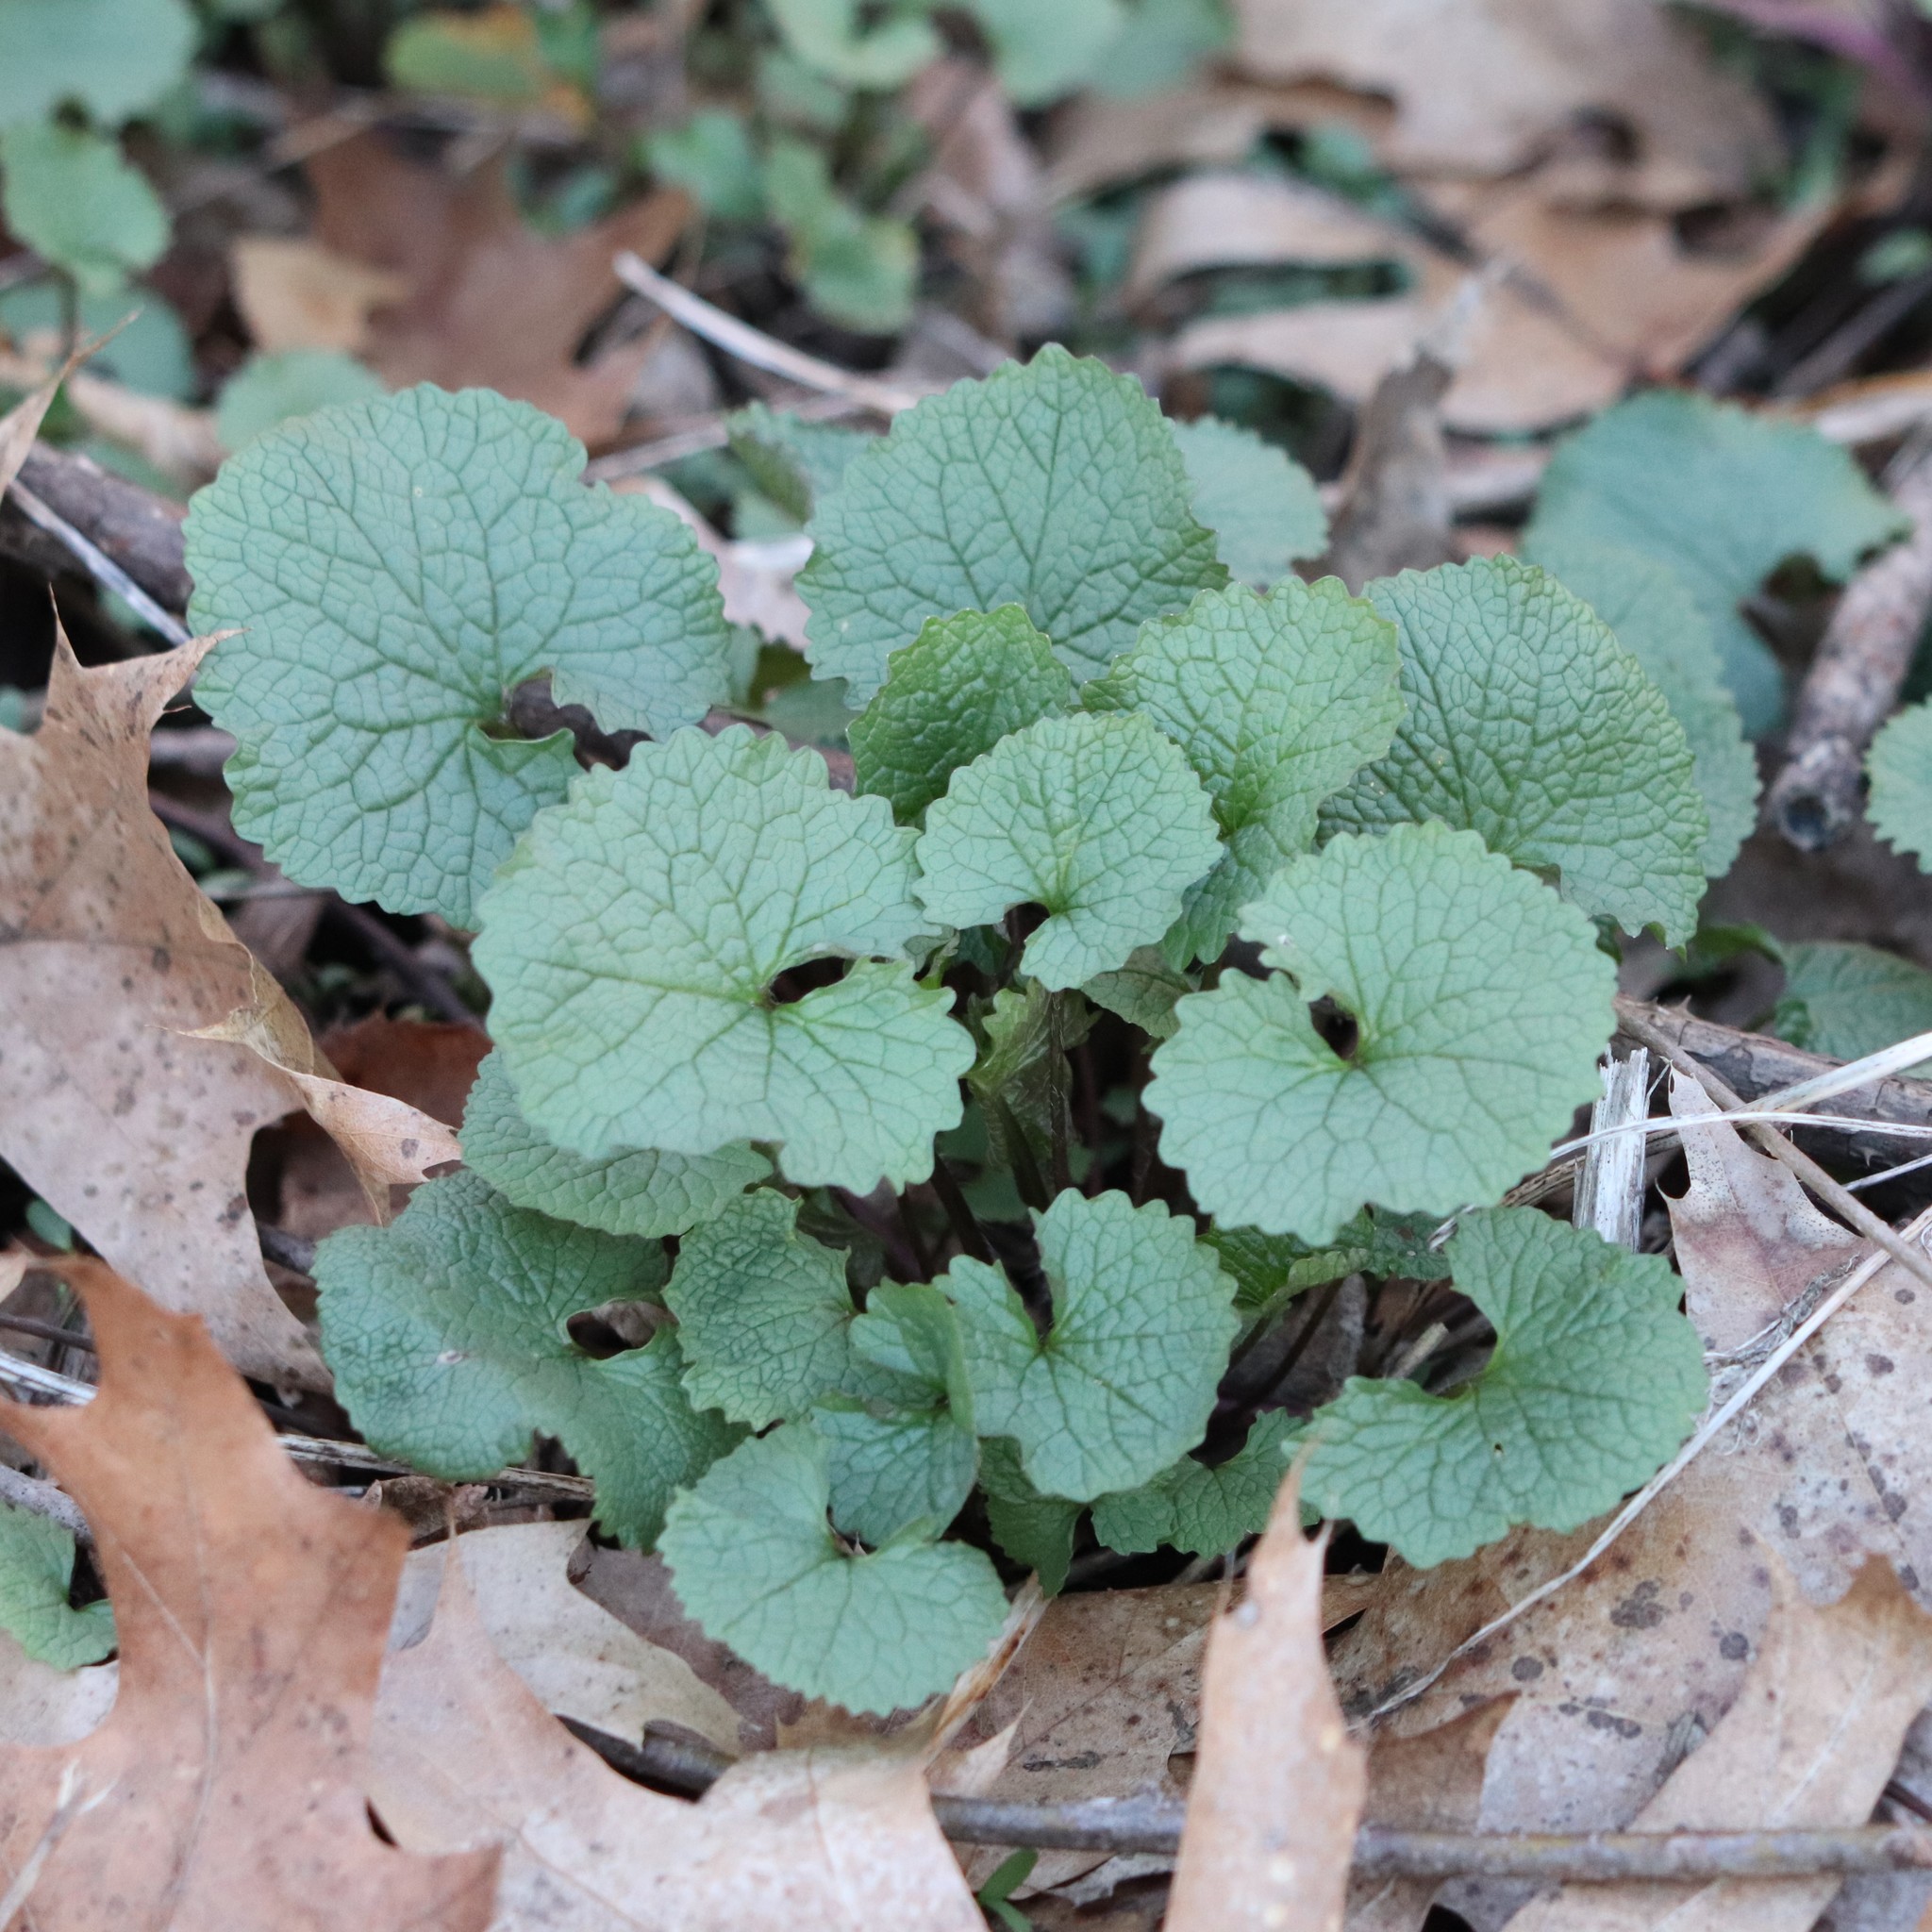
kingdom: Plantae
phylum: Tracheophyta
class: Magnoliopsida
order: Brassicales
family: Brassicaceae
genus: Alliaria
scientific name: Alliaria petiolata
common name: Garlic mustard
